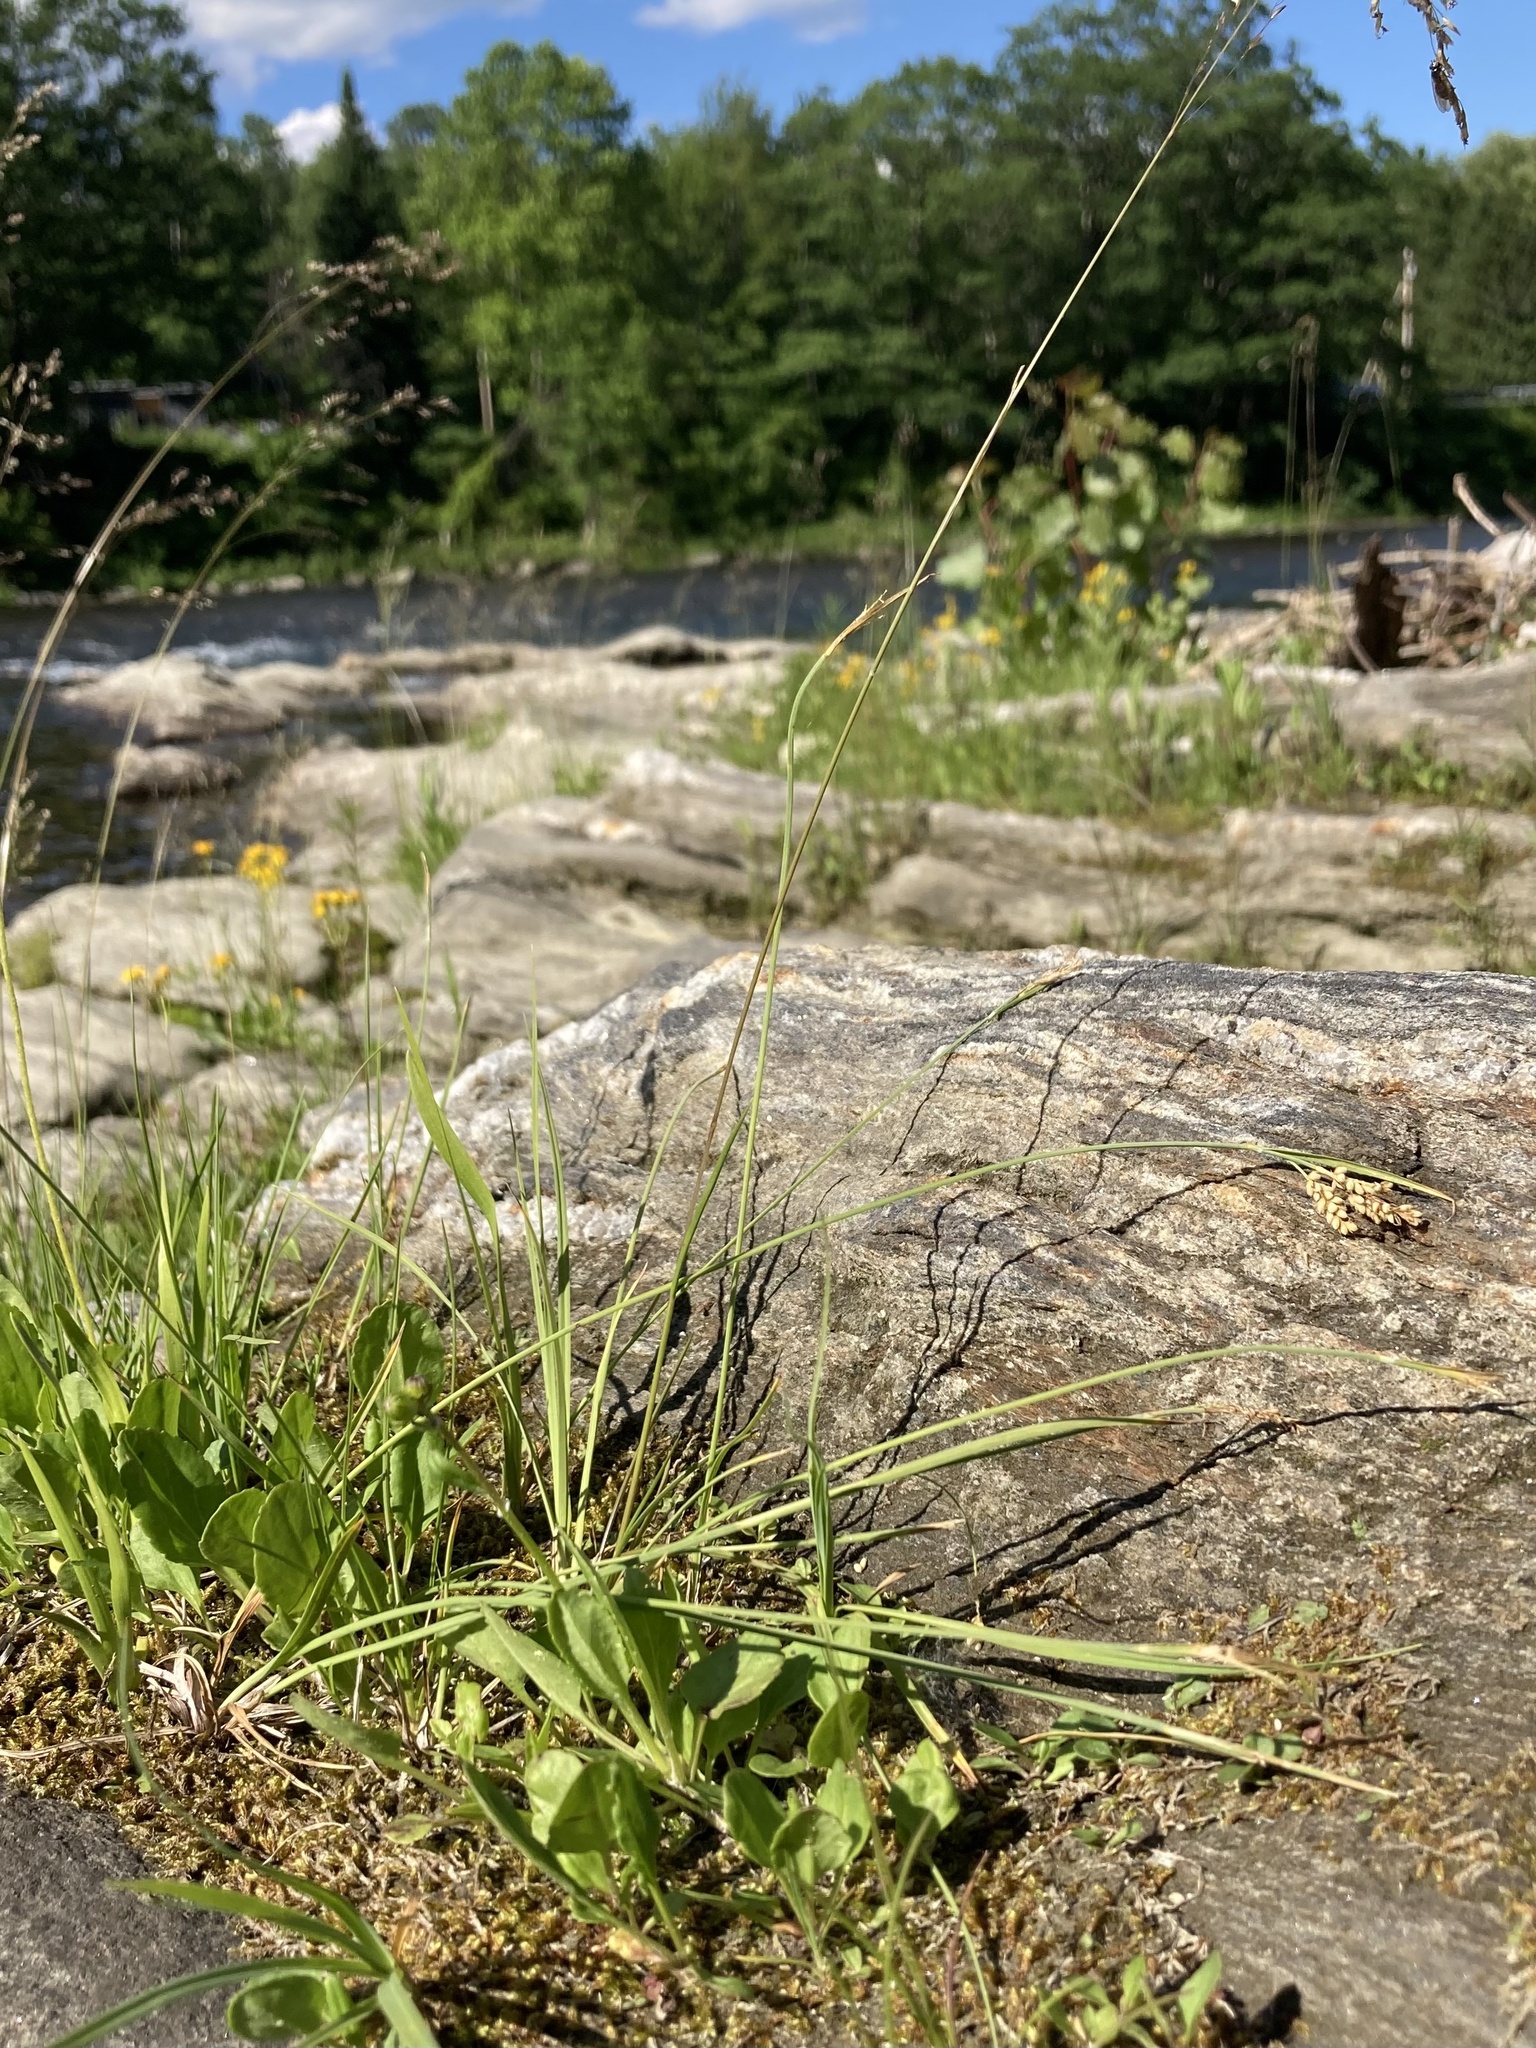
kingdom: Plantae
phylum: Tracheophyta
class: Liliopsida
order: Poales
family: Cyperaceae
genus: Carex
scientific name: Carex garberi
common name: Elk sedge
